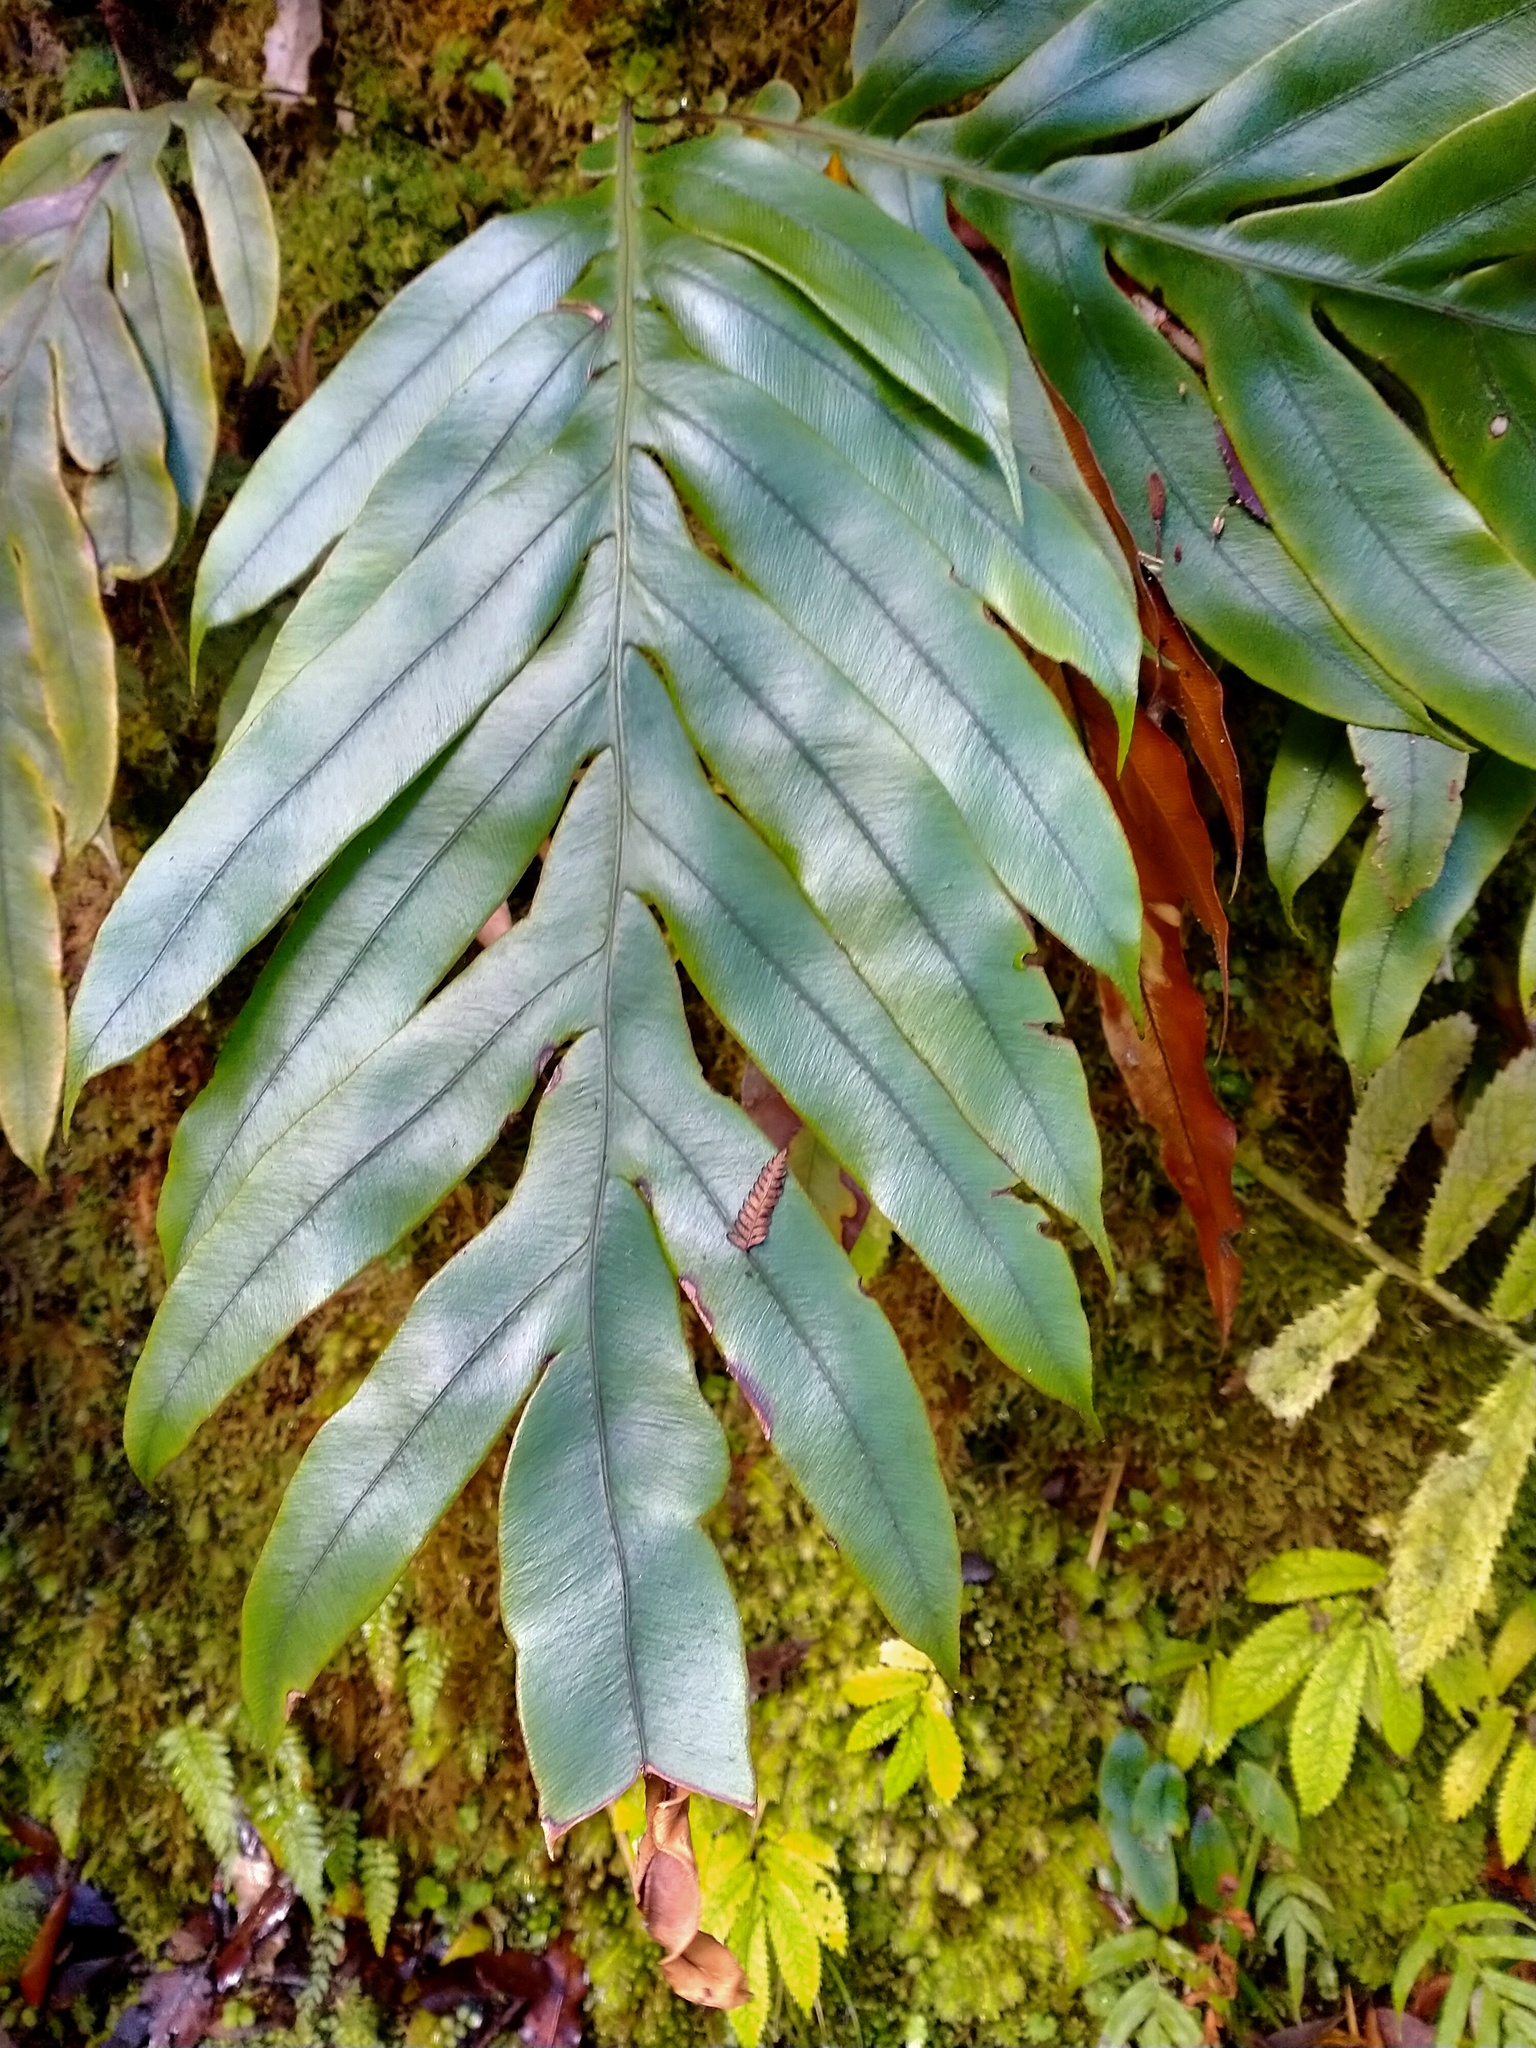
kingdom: Plantae
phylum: Tracheophyta
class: Polypodiopsida
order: Polypodiales
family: Blechnaceae
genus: Austroblechnum
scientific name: Austroblechnum colensoi
